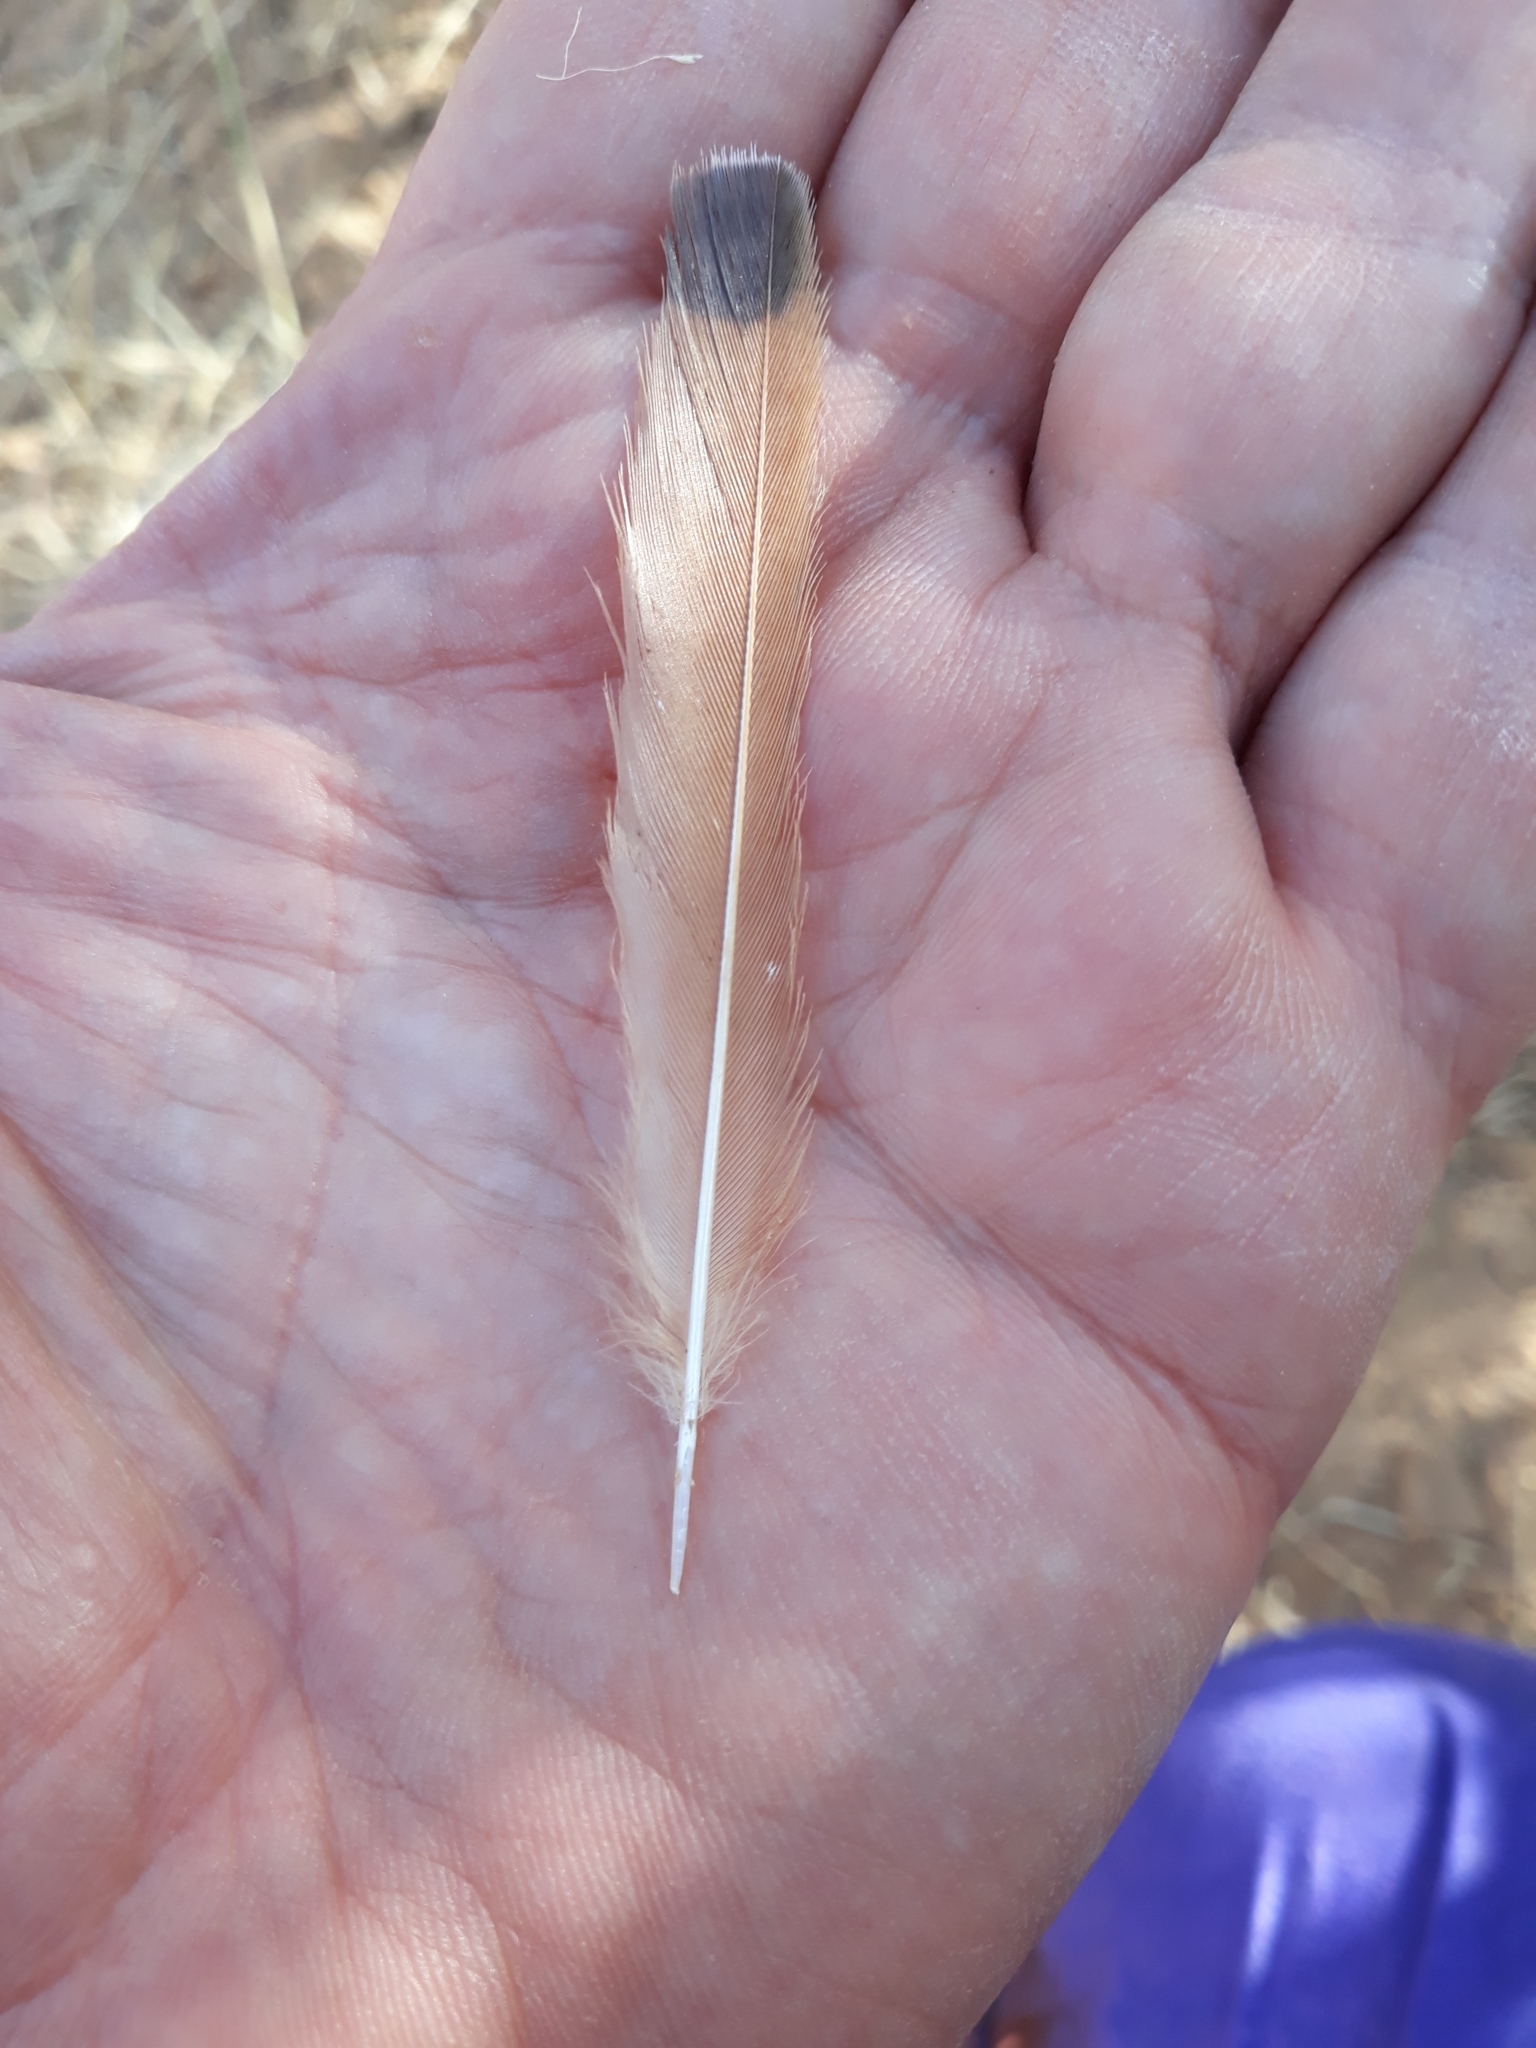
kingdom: Animalia
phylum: Chordata
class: Aves
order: Passeriformes
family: Muscicapidae
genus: Erythropygia
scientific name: Erythropygia galactotes
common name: Rufous-tailed scrub robin
